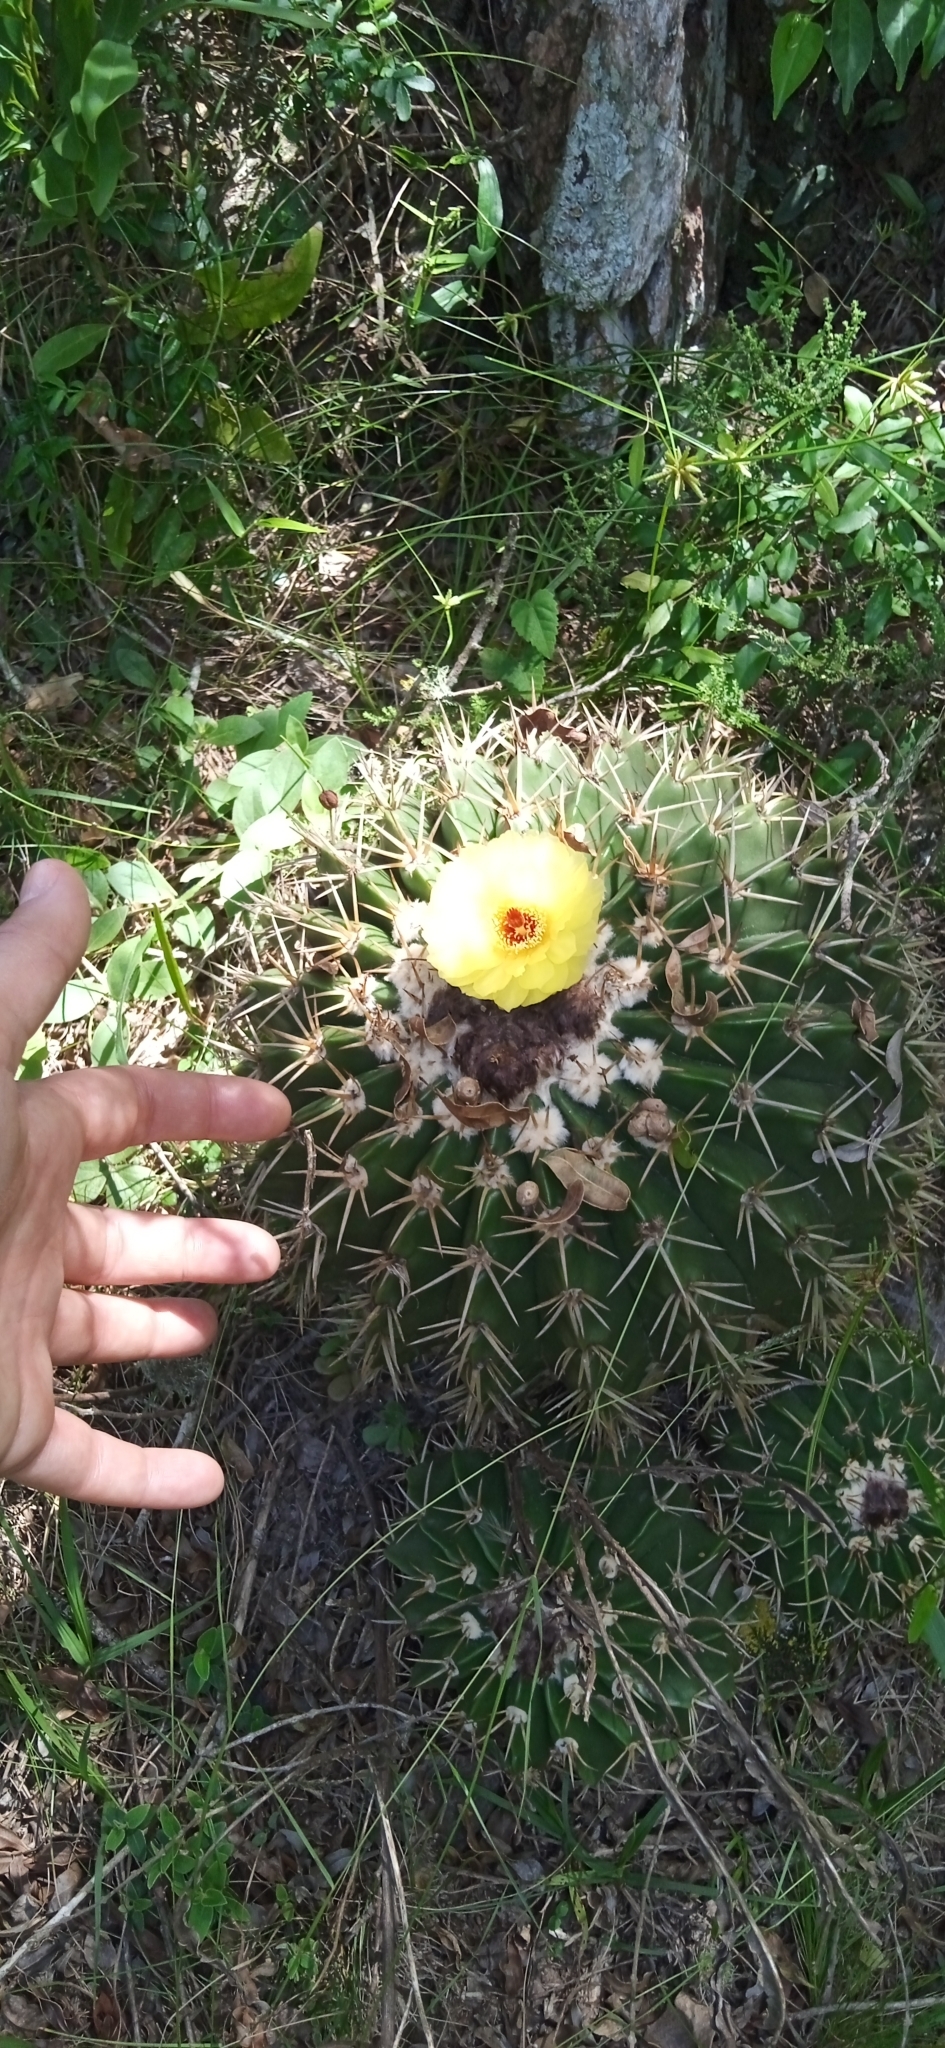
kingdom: Plantae
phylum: Tracheophyta
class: Magnoliopsida
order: Caryophyllales
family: Cactaceae
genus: Parodia
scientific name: Parodia erinacea
